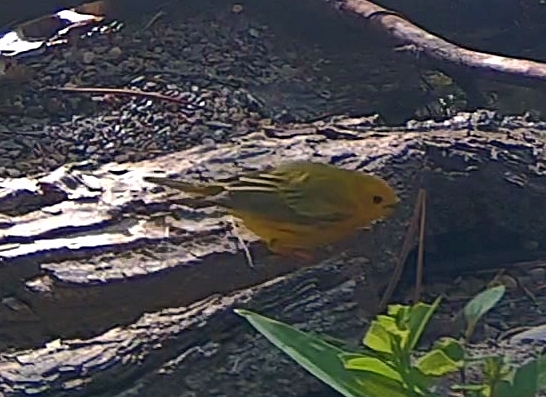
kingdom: Animalia
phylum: Chordata
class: Aves
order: Passeriformes
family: Parulidae
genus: Setophaga
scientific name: Setophaga petechia
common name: Yellow warbler
